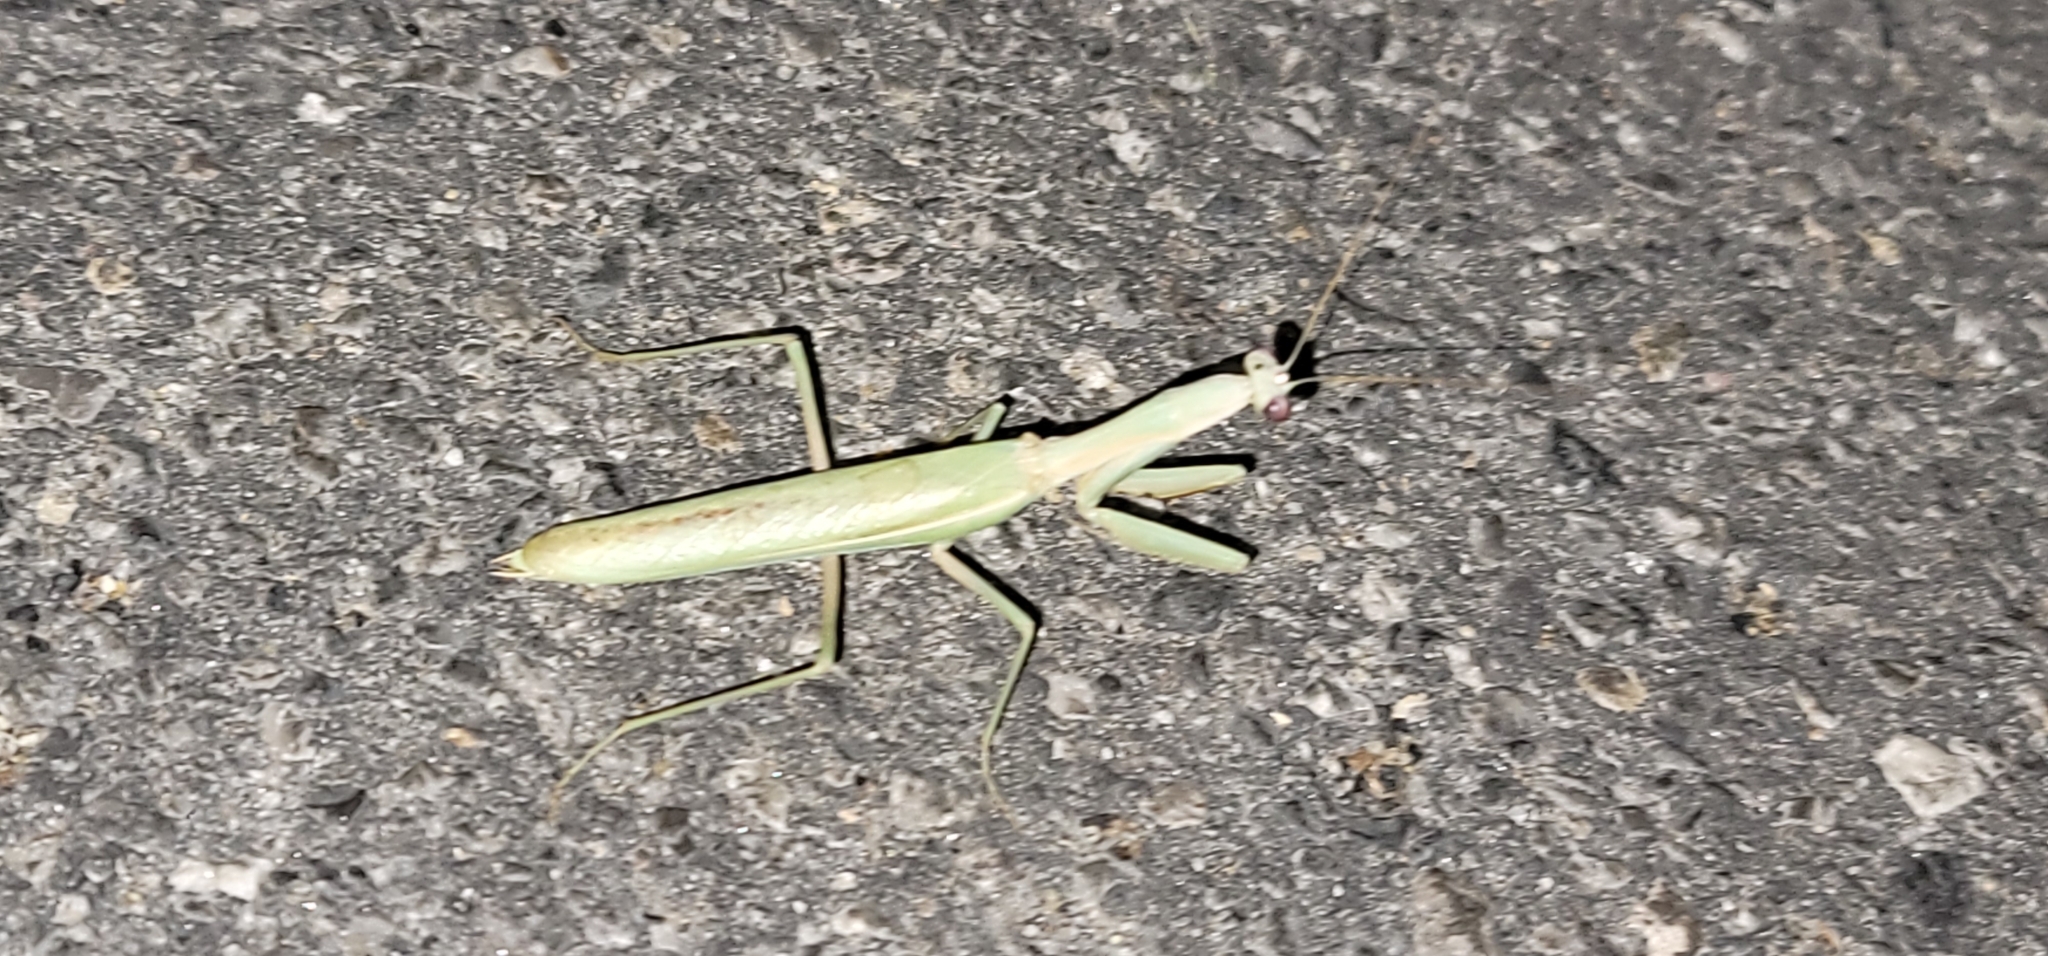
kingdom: Animalia
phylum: Arthropoda
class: Insecta
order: Mantodea
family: Eremiaphilidae
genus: Iris
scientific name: Iris oratoria
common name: Mediterranean mantis
